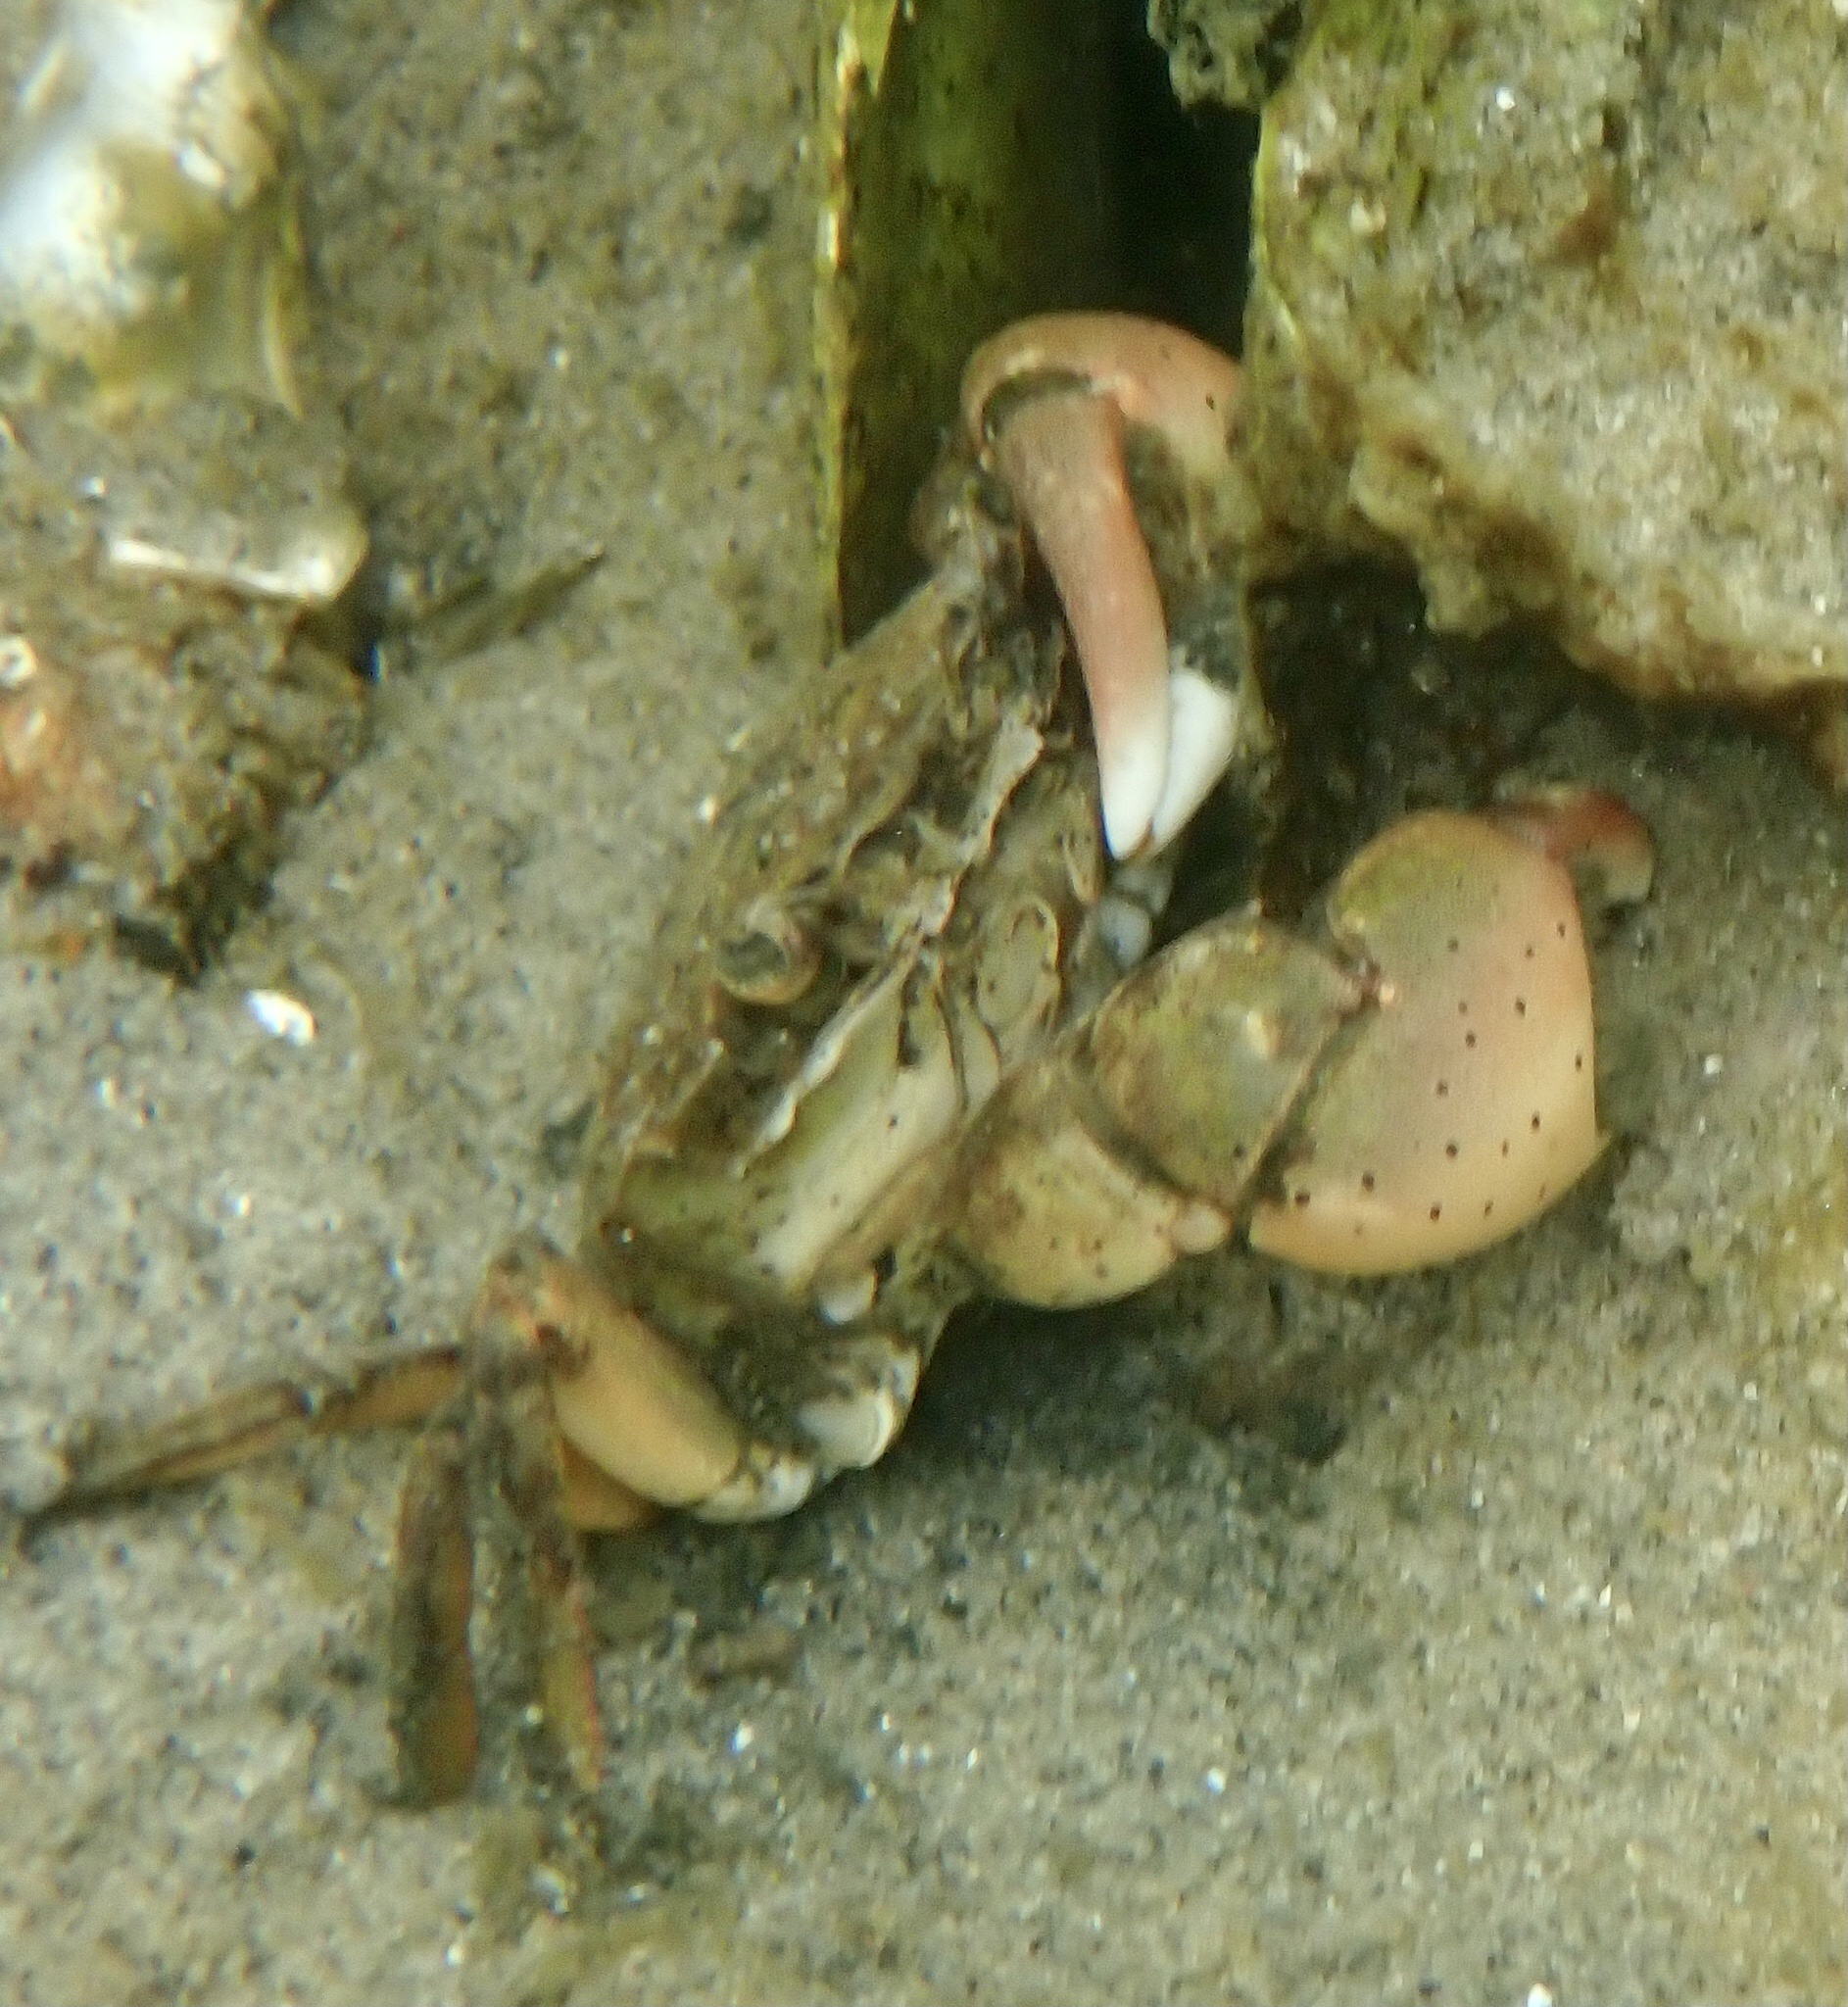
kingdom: Animalia
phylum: Arthropoda
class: Malacostraca
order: Decapoda
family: Varunidae
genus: Hemigrapsus
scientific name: Hemigrapsus takanoi
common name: Asian brush crab
